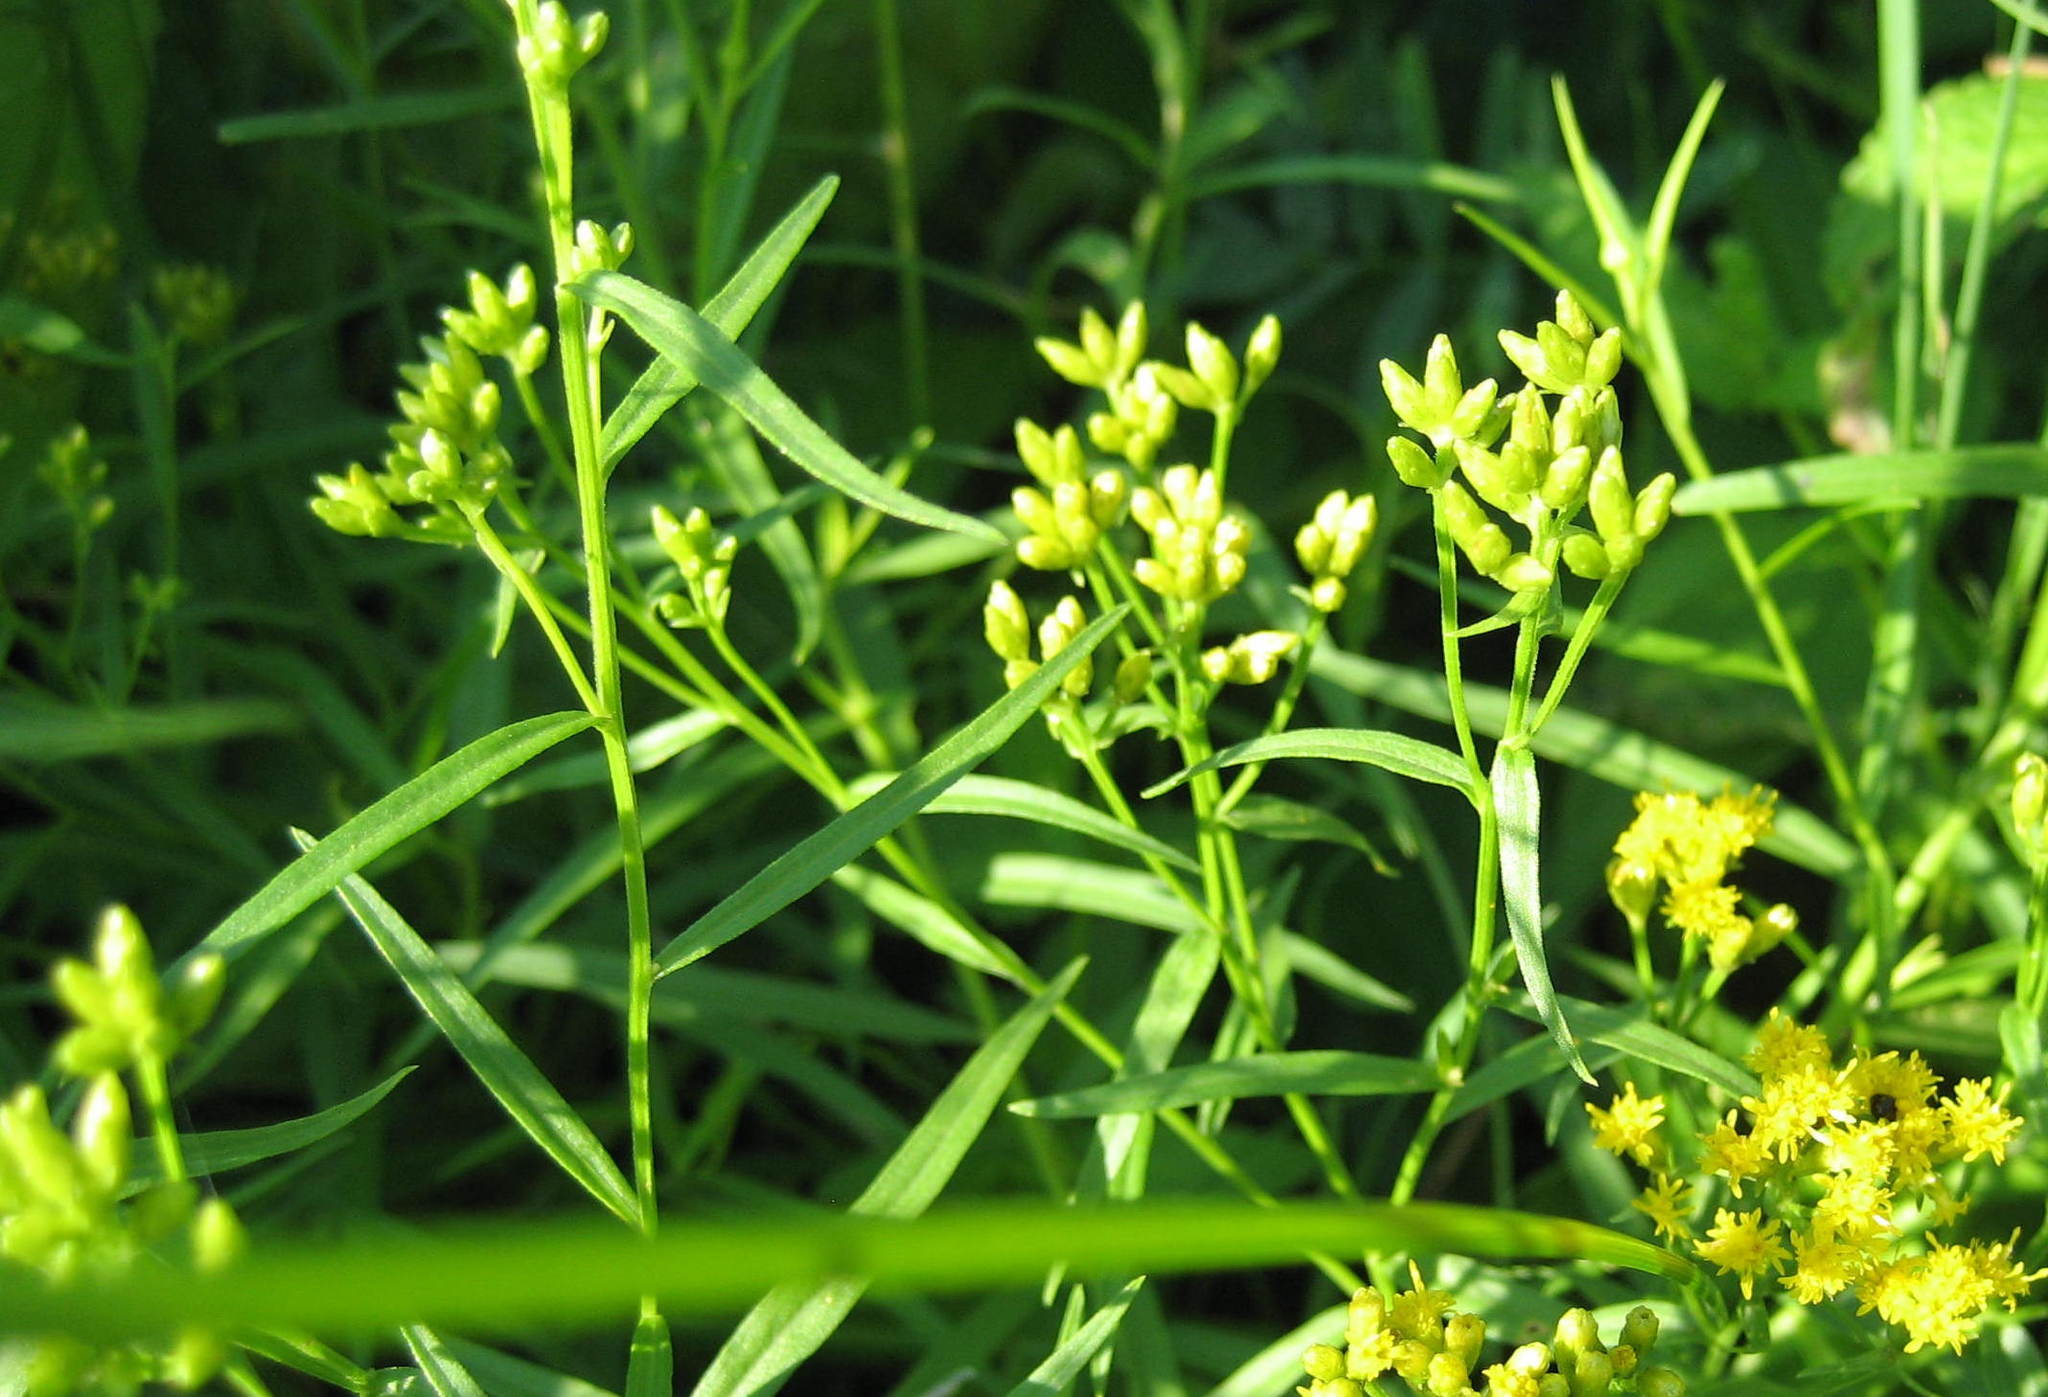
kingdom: Plantae
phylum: Tracheophyta
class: Magnoliopsida
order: Asterales
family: Asteraceae
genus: Euthamia
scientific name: Euthamia graminifolia
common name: Common goldentop
